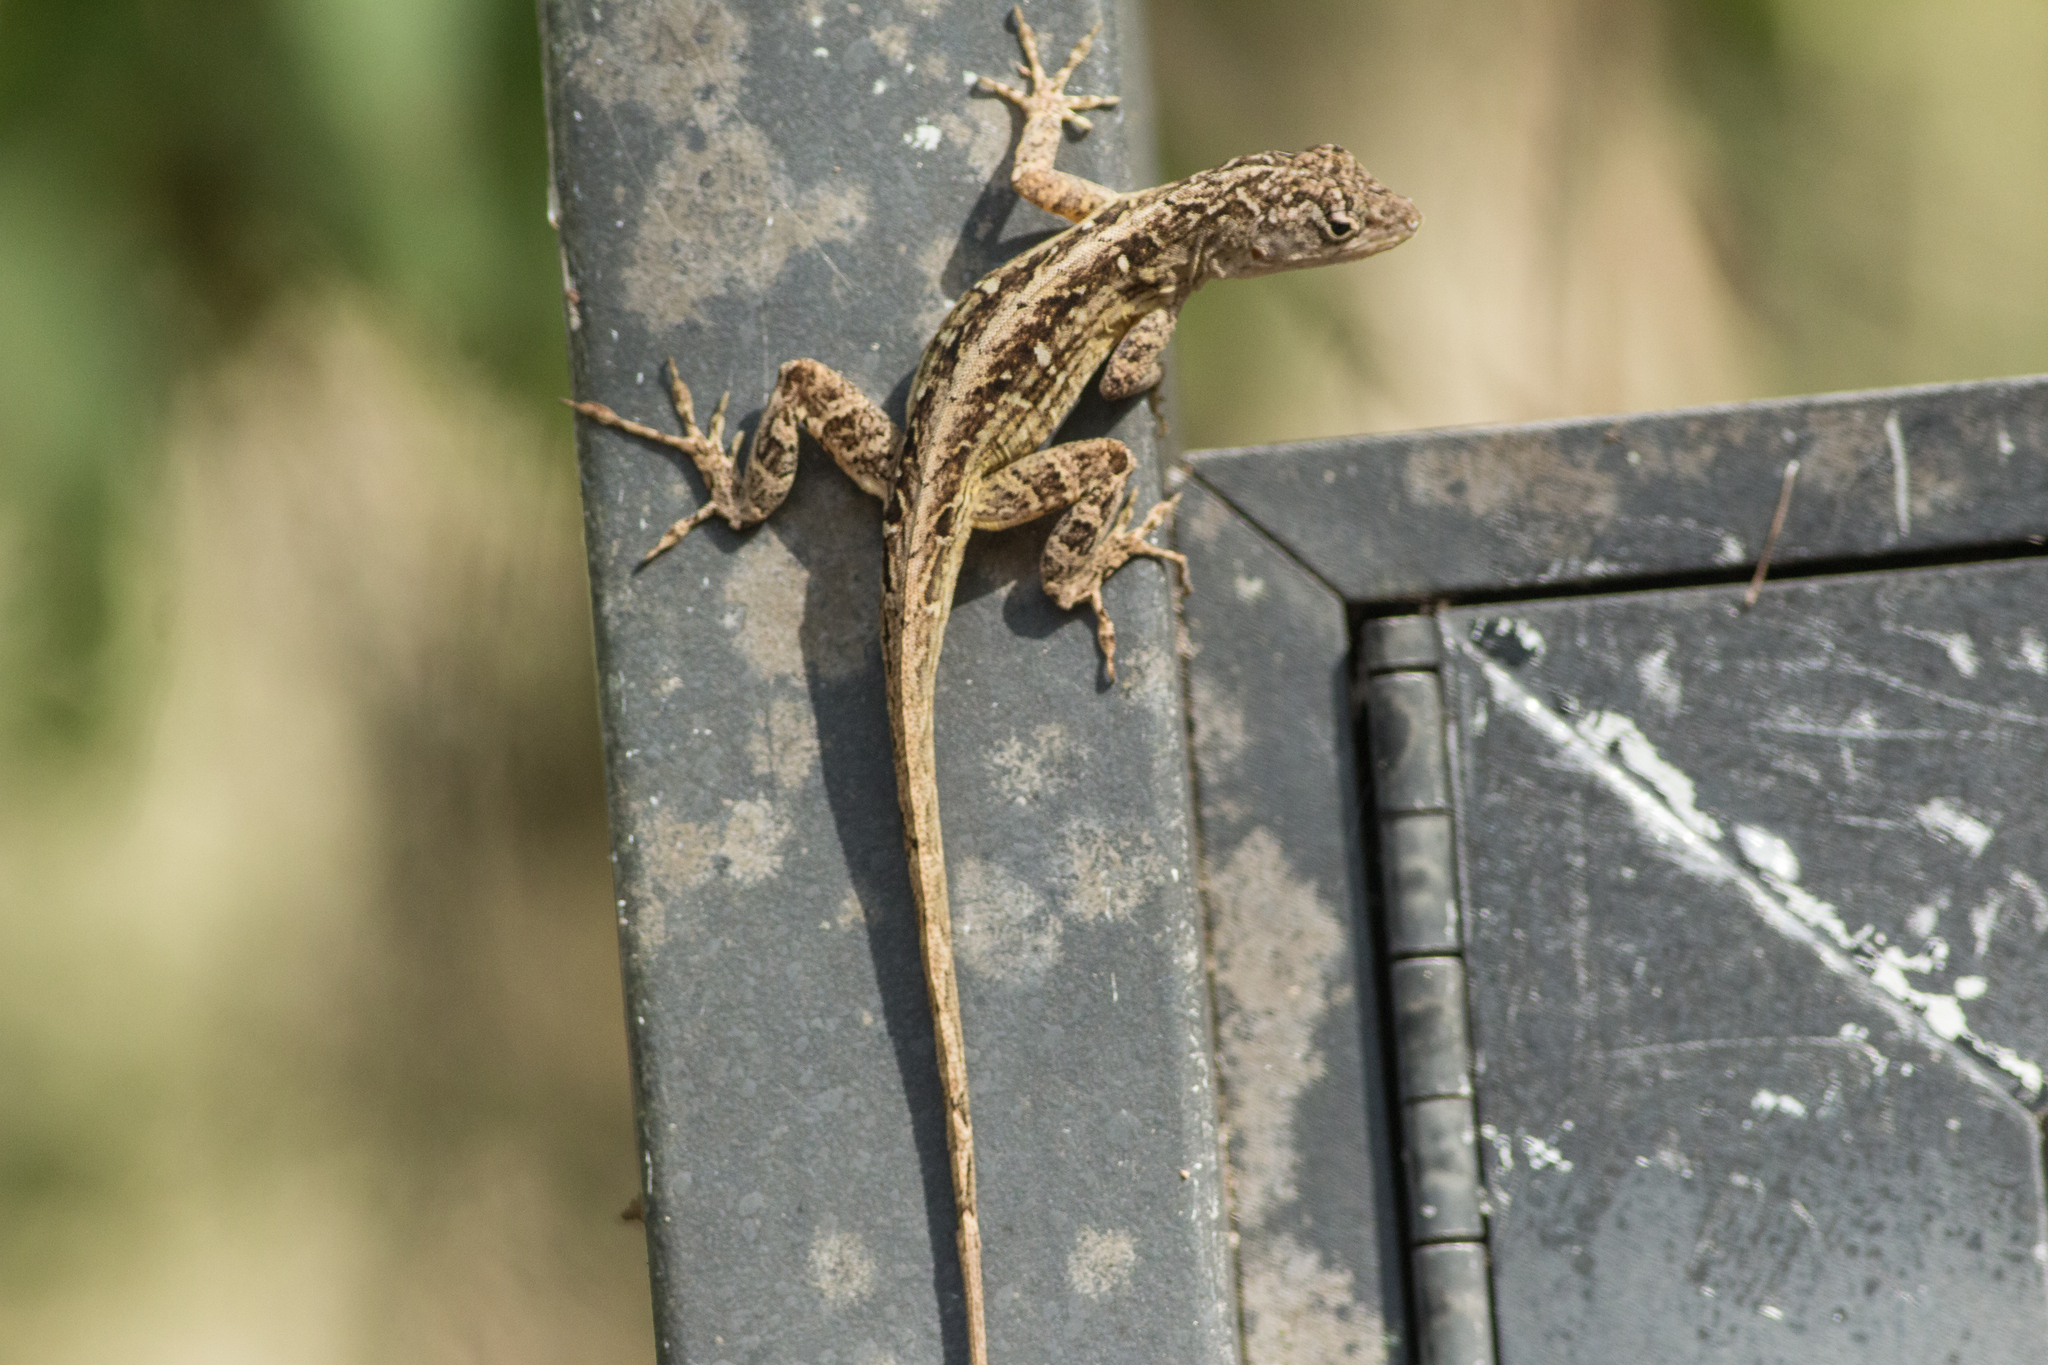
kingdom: Animalia
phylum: Chordata
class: Squamata
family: Dactyloidae
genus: Anolis
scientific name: Anolis sagrei
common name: Brown anole
